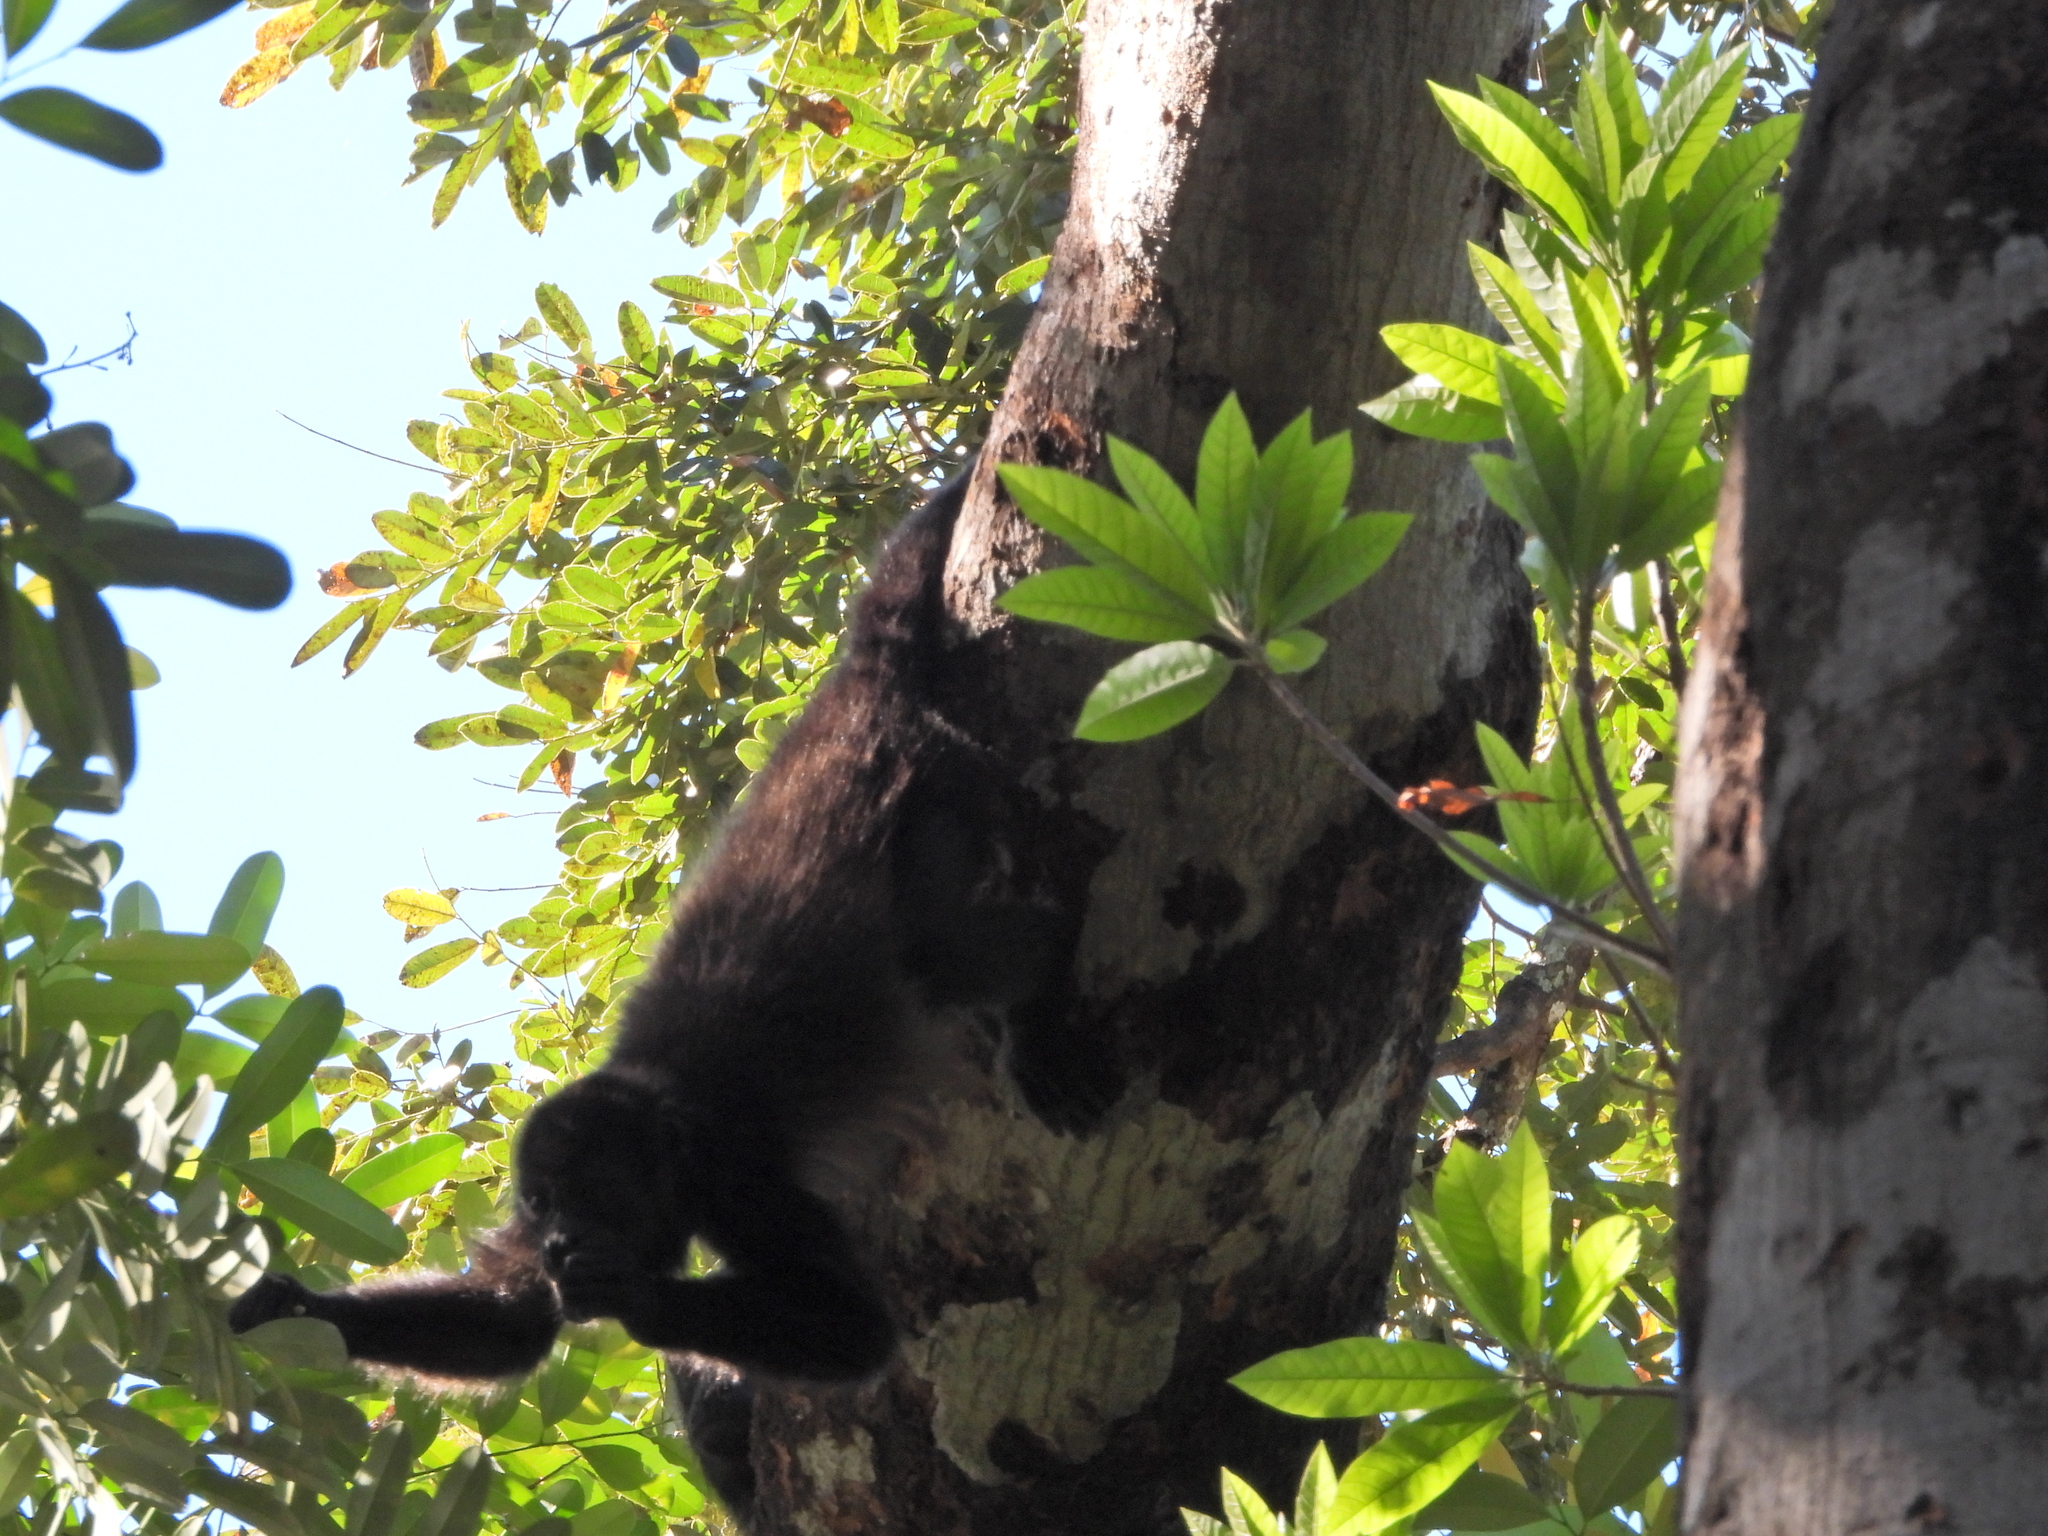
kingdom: Animalia
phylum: Chordata
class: Mammalia
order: Primates
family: Atelidae
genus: Alouatta
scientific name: Alouatta palliata
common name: Mantled howler
